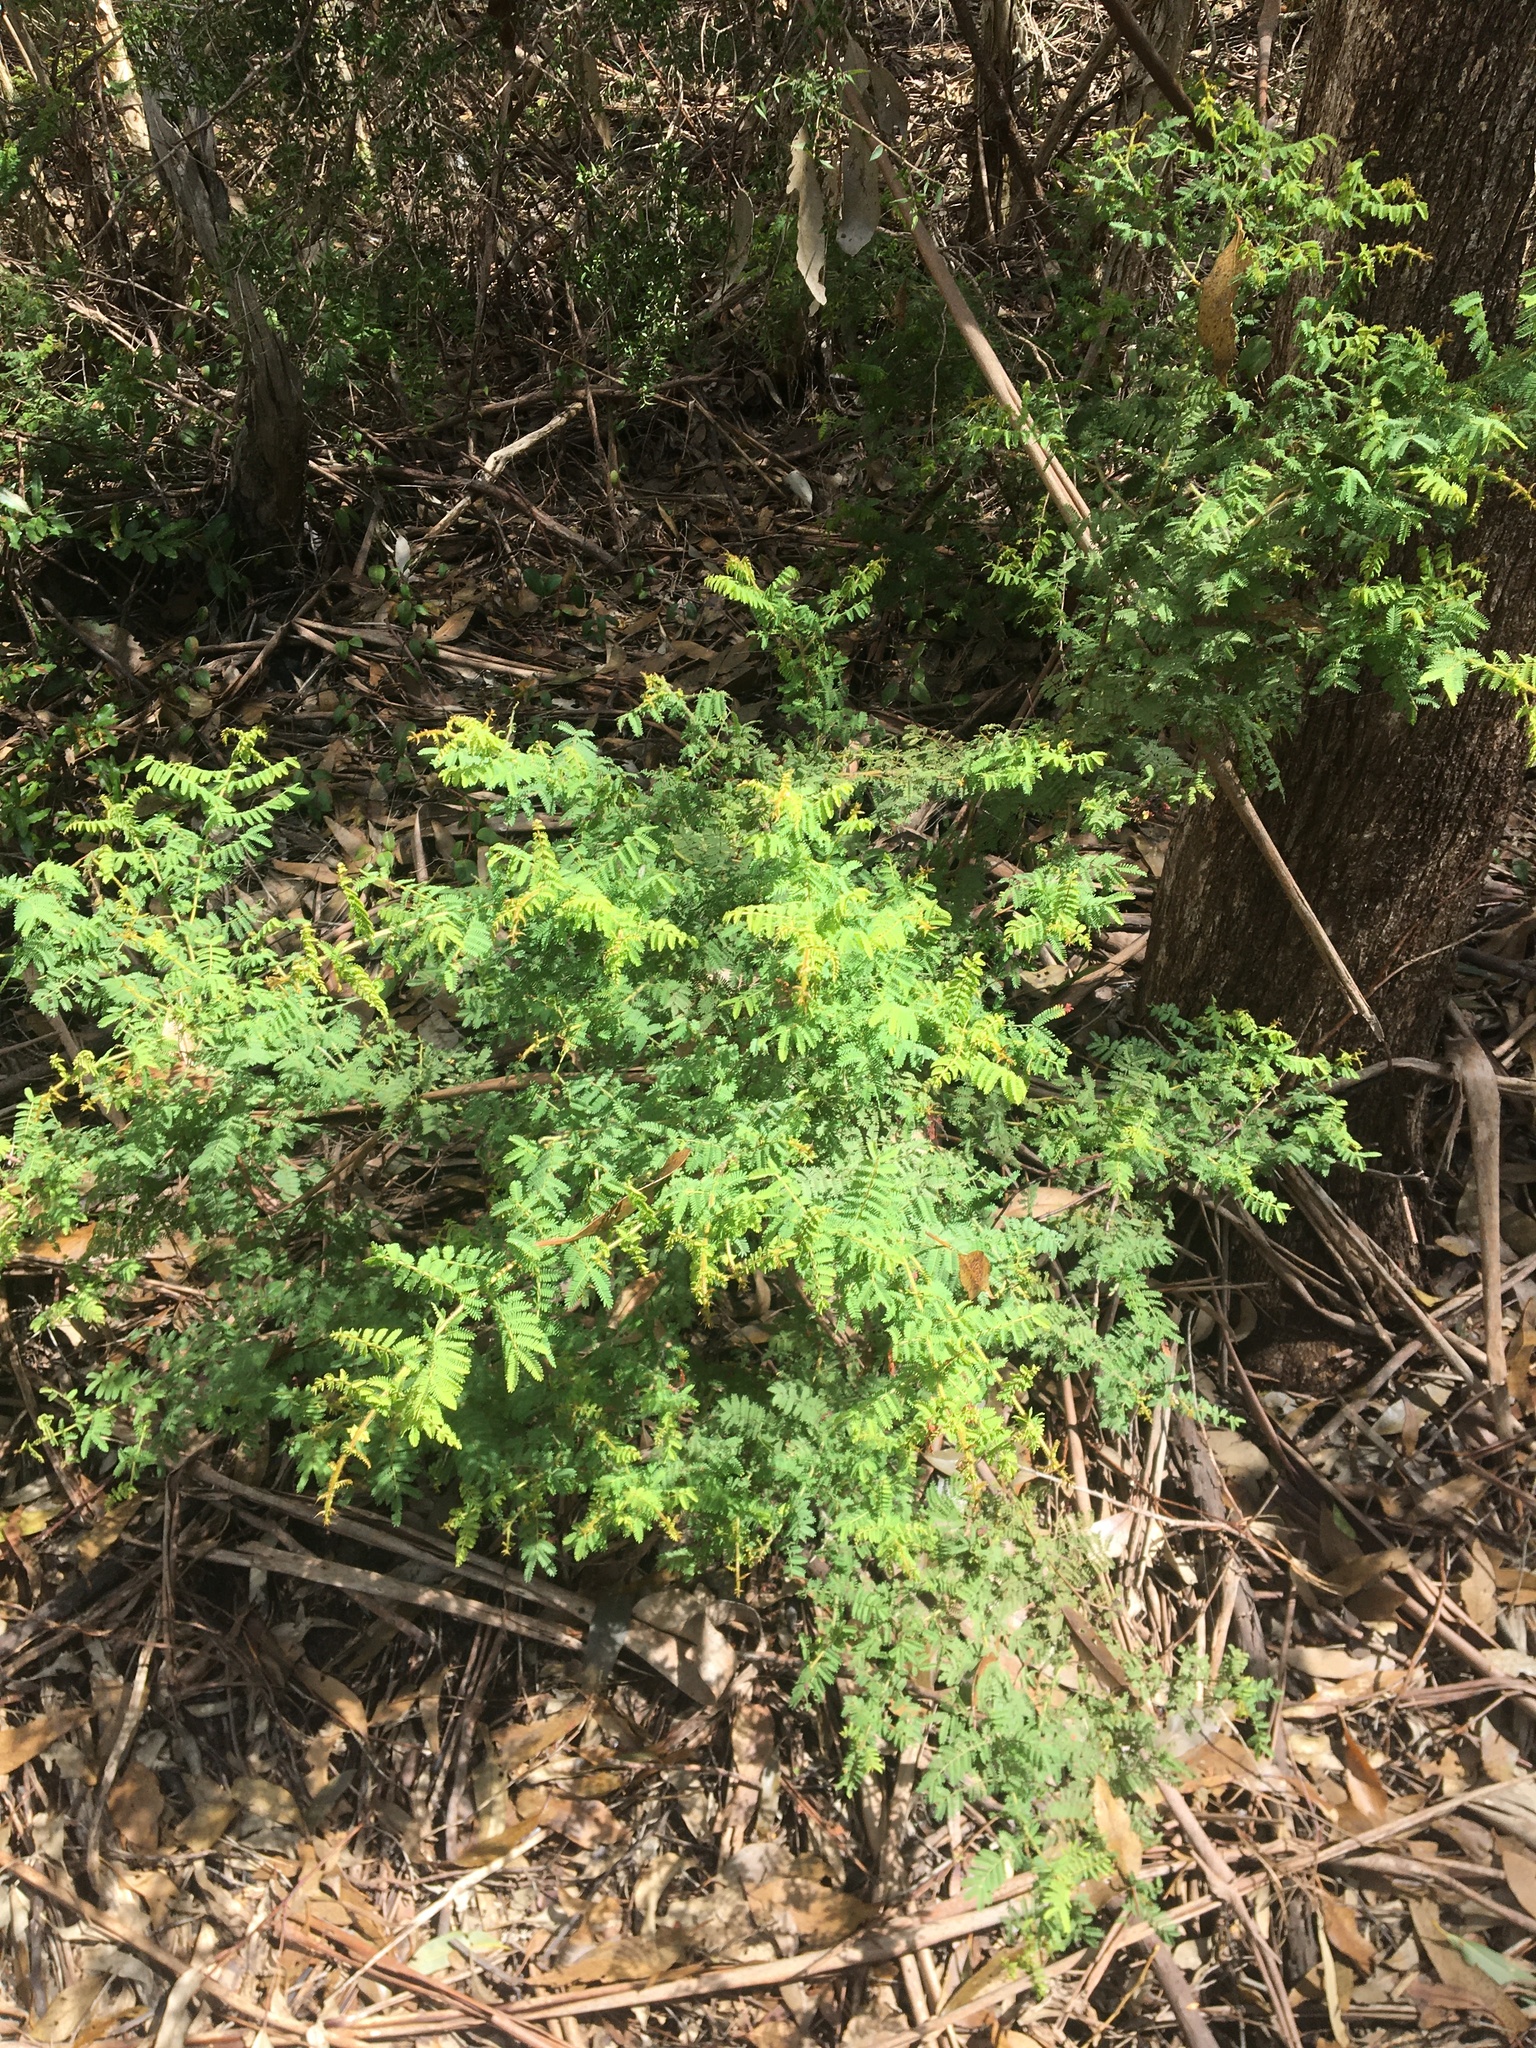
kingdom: Plantae
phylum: Tracheophyta
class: Magnoliopsida
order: Fabales
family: Fabaceae
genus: Acacia
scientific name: Acacia pubescens
